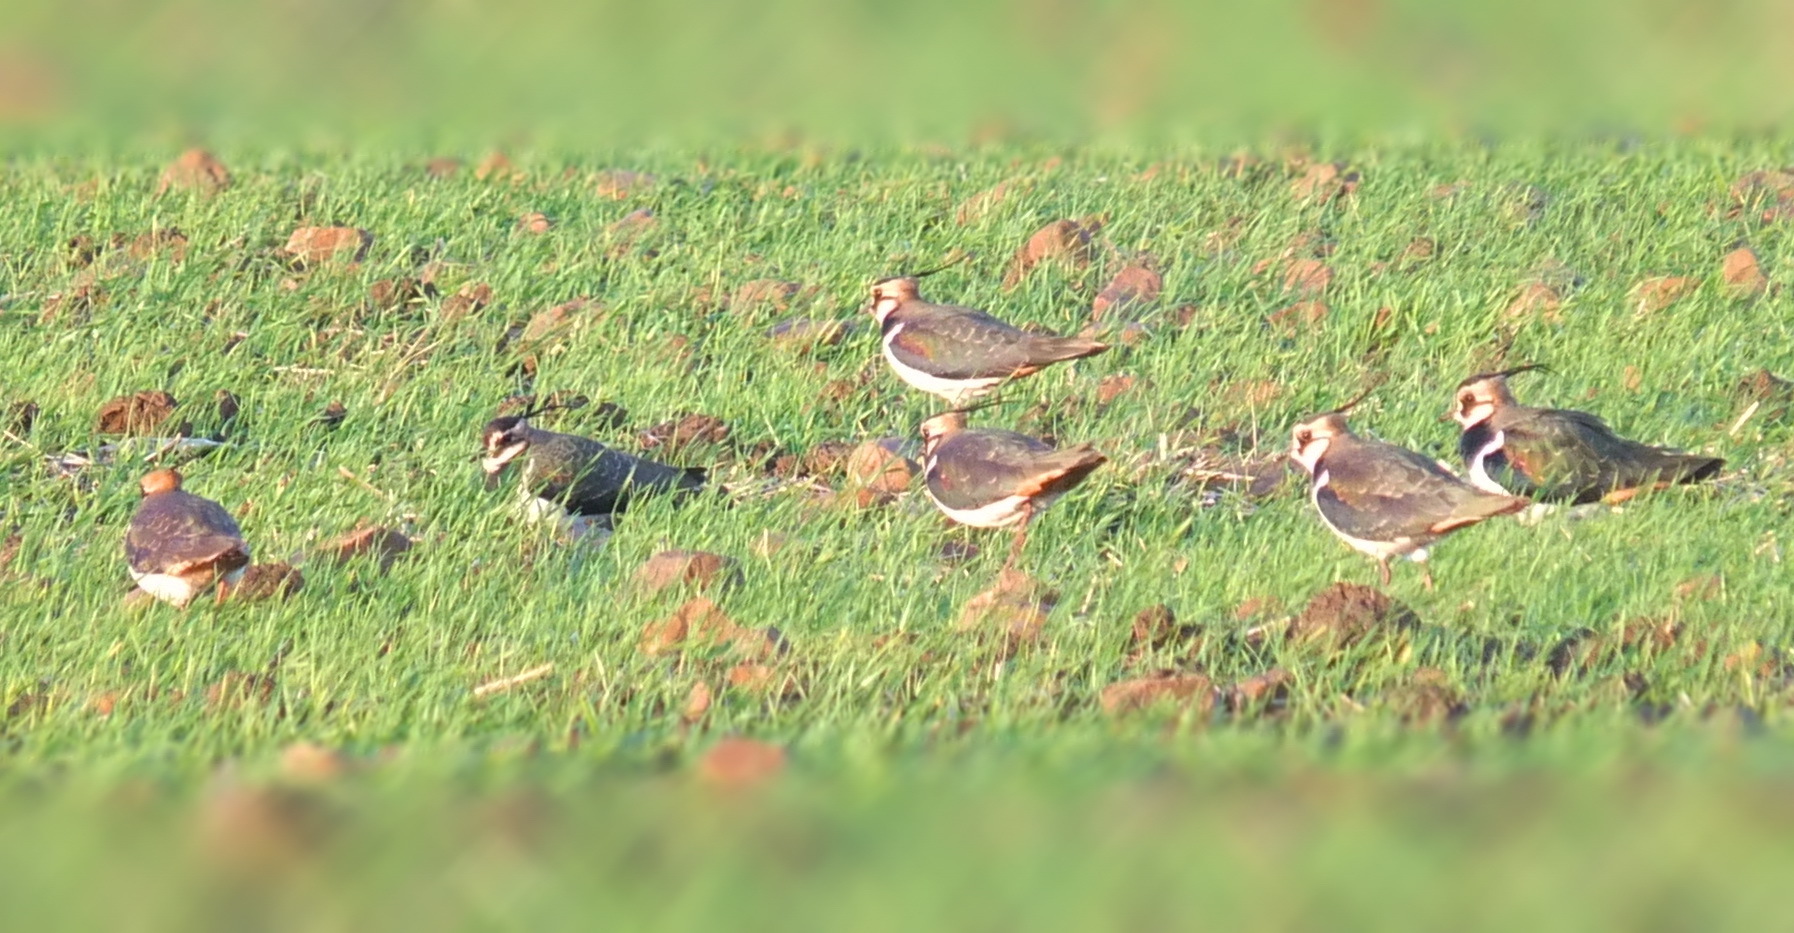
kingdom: Animalia
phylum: Chordata
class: Aves
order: Charadriiformes
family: Charadriidae
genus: Vanellus
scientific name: Vanellus vanellus
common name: Northern lapwing
